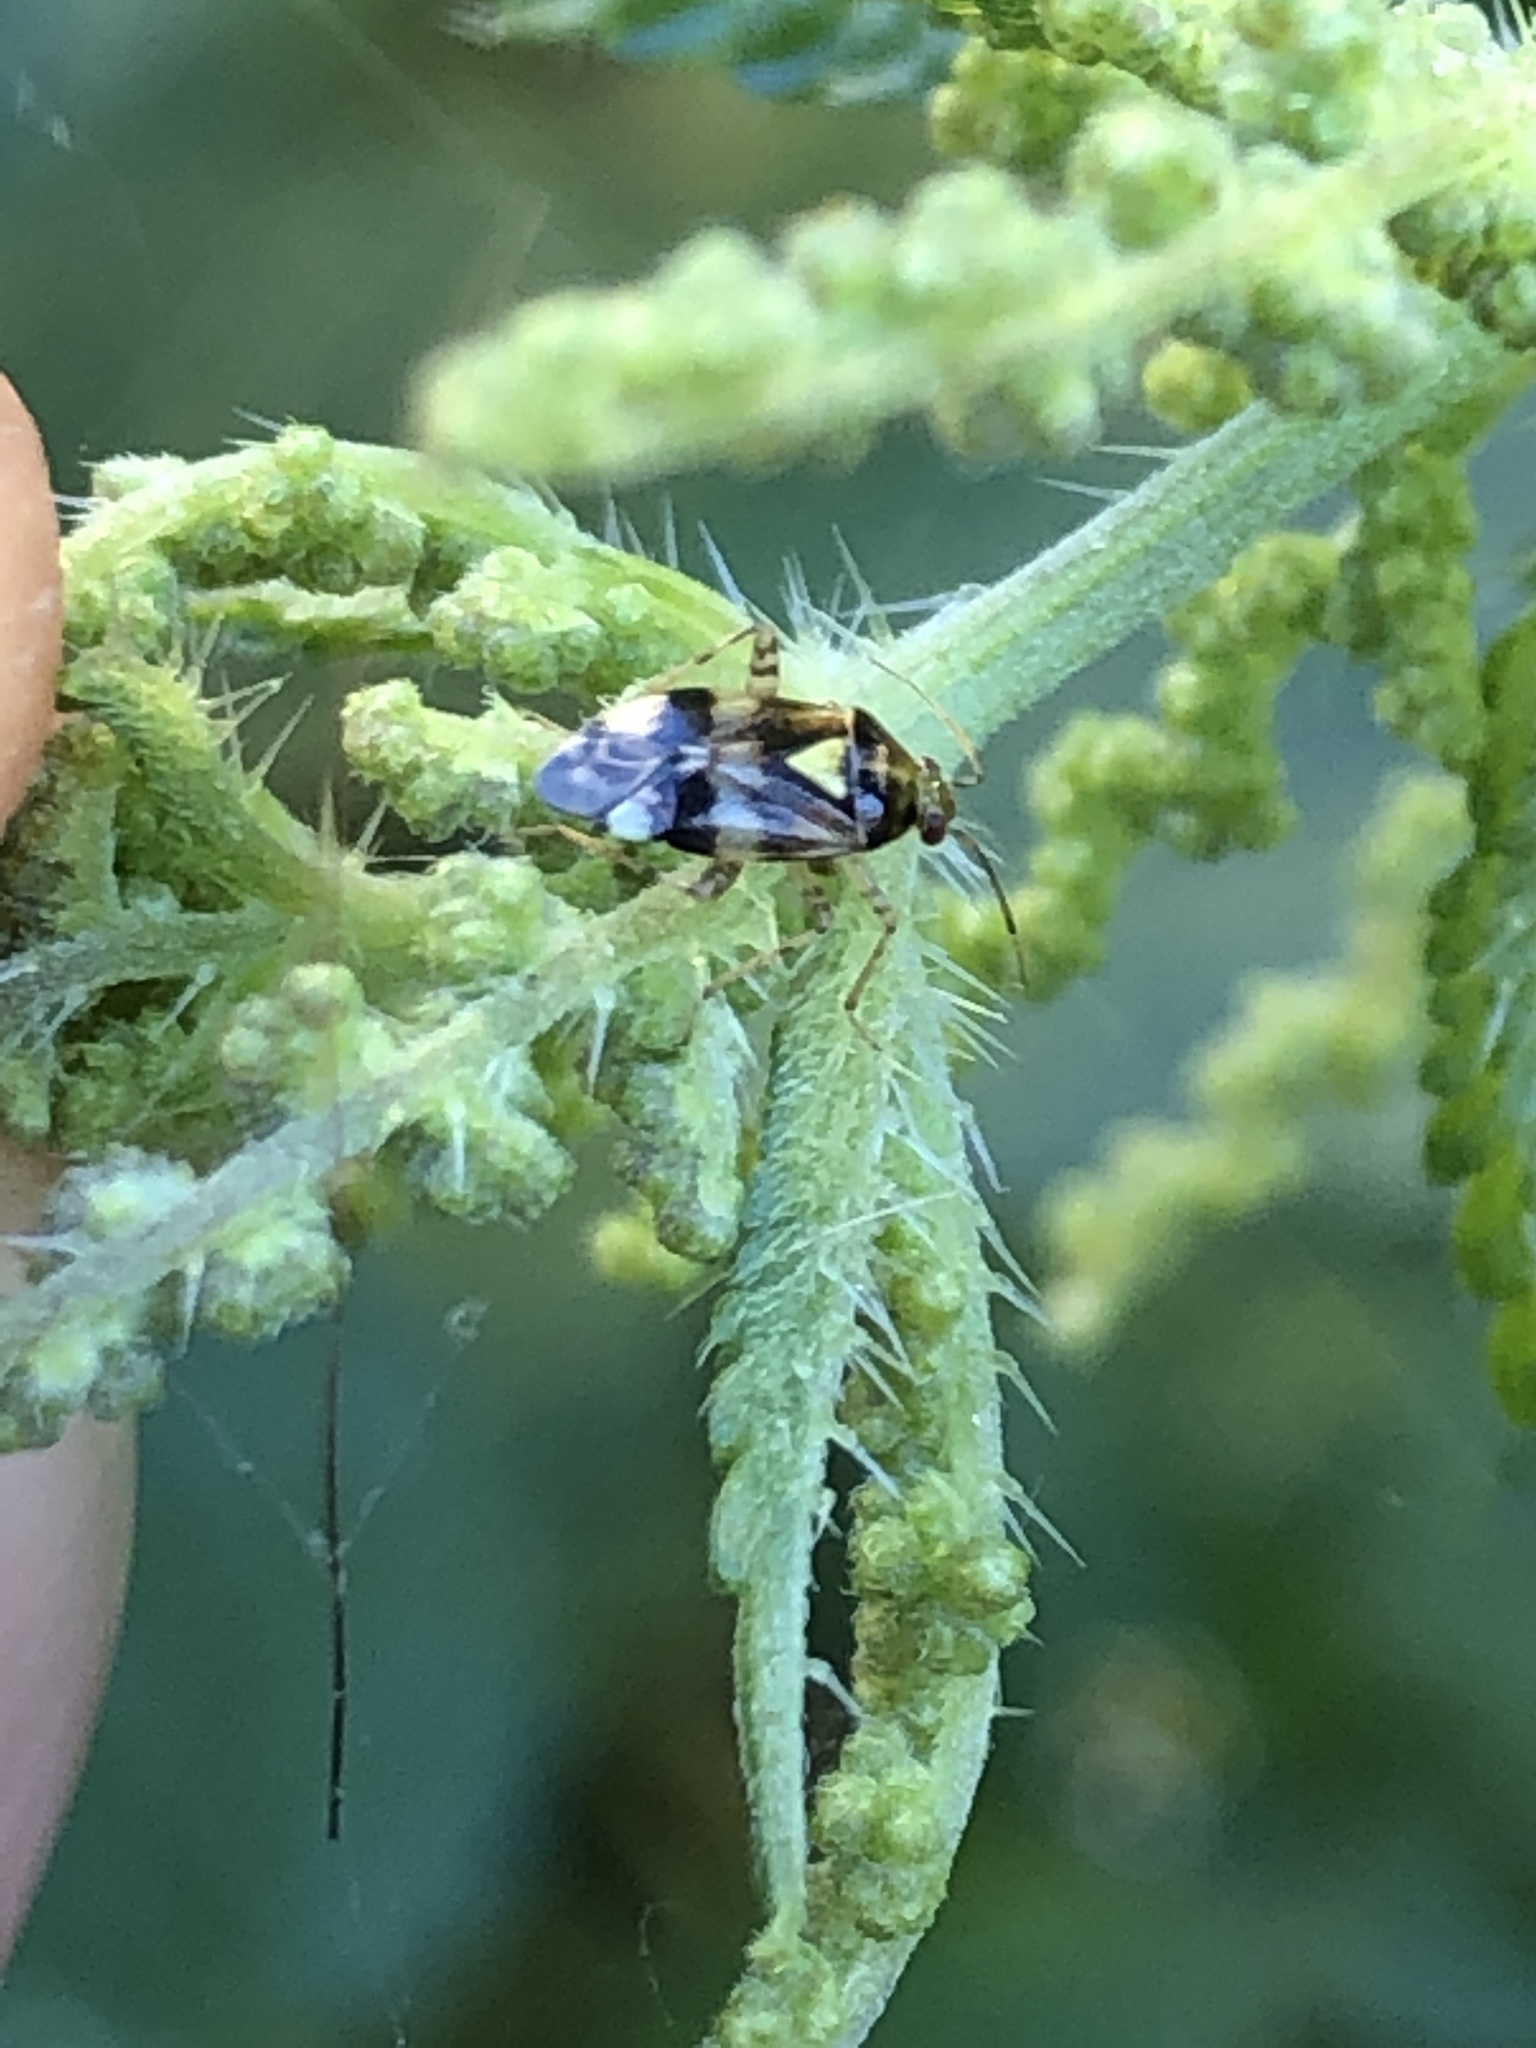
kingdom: Animalia
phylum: Arthropoda
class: Insecta
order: Hemiptera
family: Miridae
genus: Liocoris
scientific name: Liocoris tripustulatus
